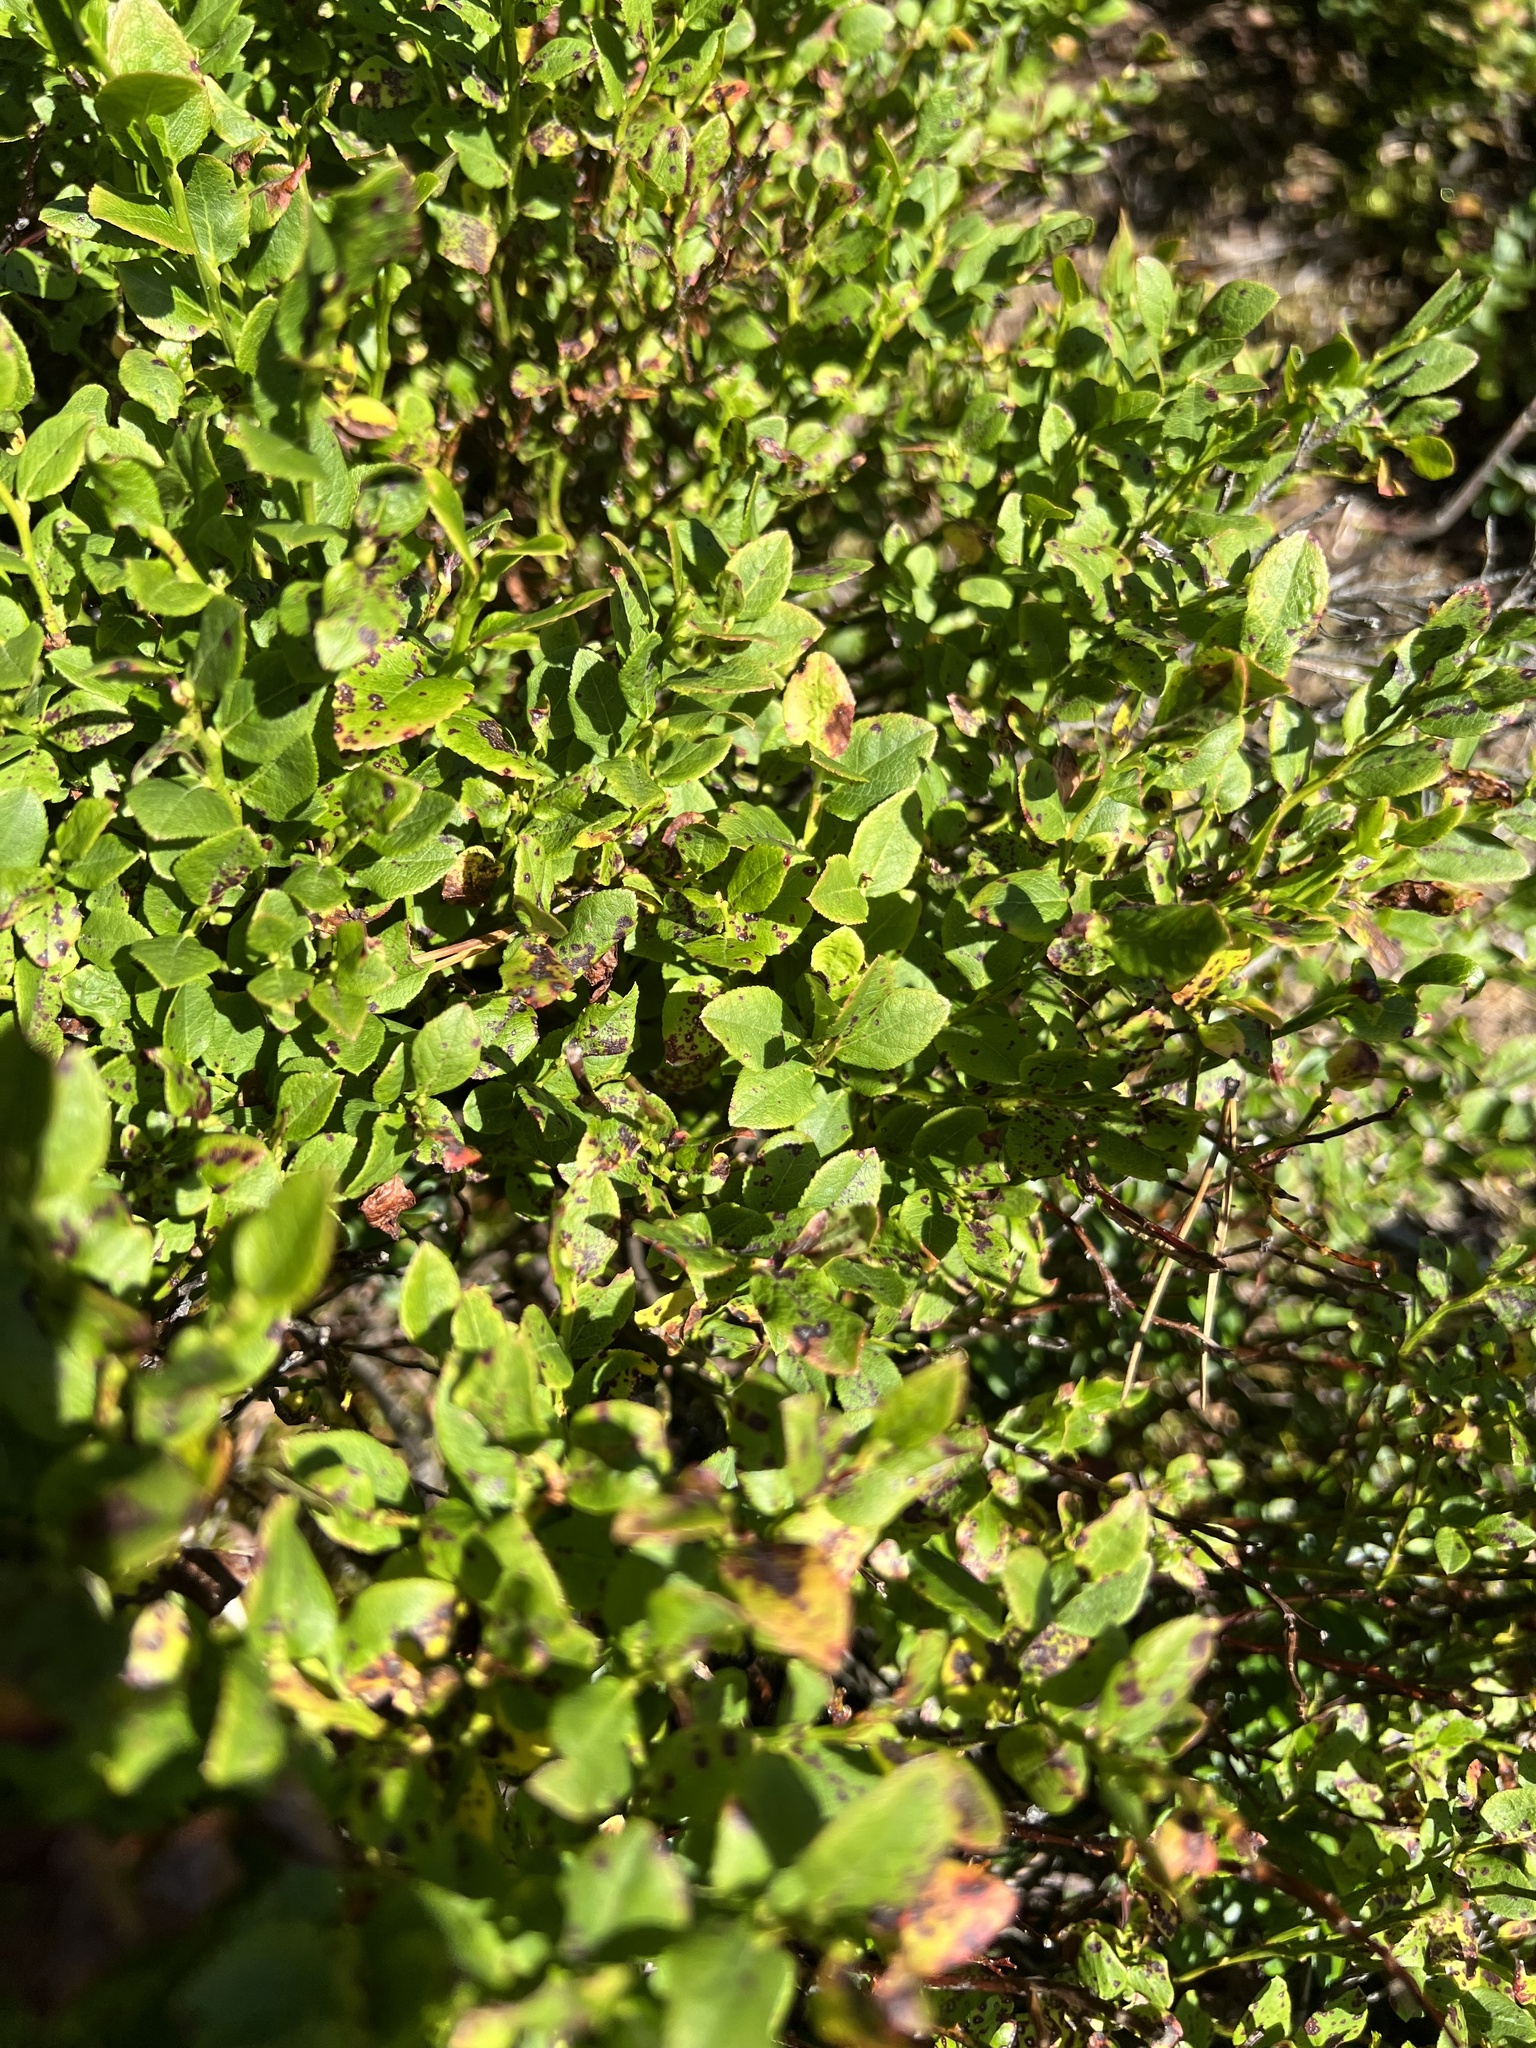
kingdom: Plantae
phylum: Tracheophyta
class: Magnoliopsida
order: Ericales
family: Ericaceae
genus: Vaccinium
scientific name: Vaccinium myrtillus
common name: Bilberry
